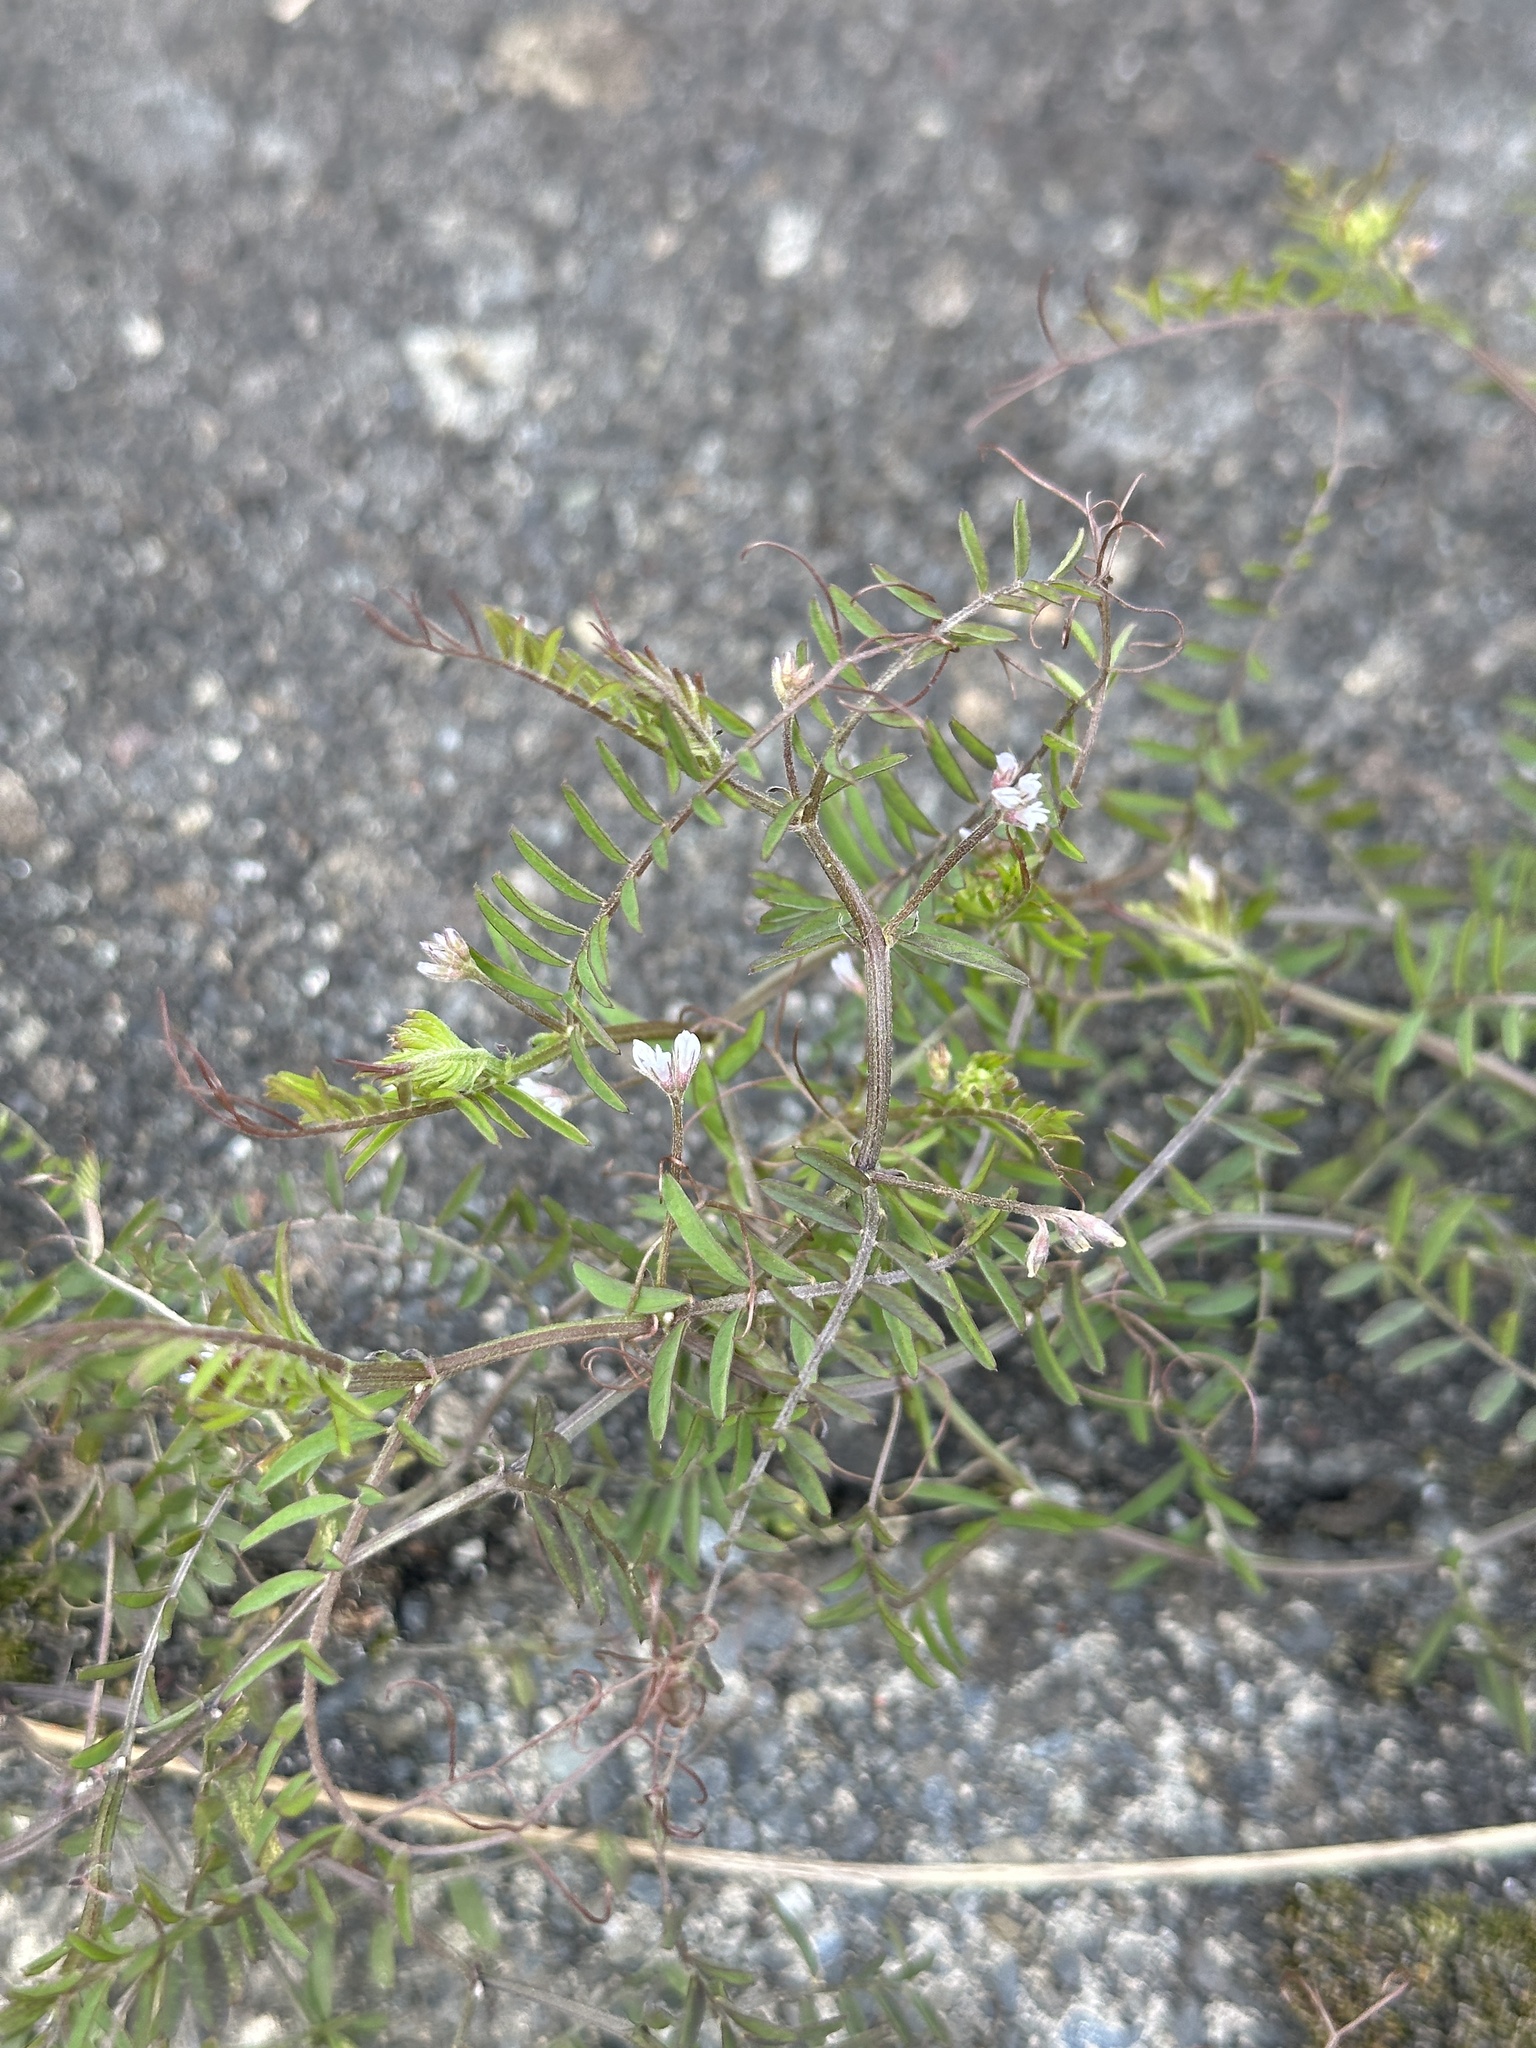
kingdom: Plantae
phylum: Tracheophyta
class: Magnoliopsida
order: Fabales
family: Fabaceae
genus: Vicia
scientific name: Vicia hirsuta
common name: Tiny vetch
